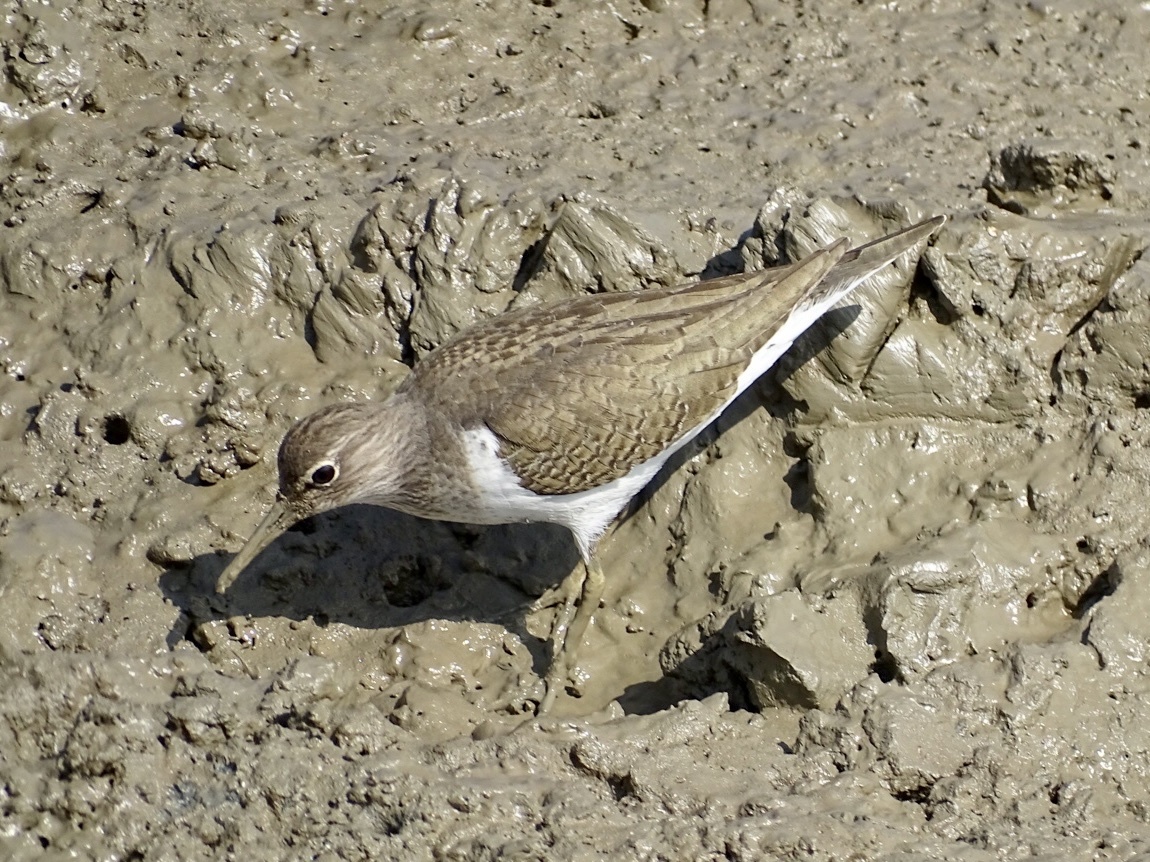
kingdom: Animalia
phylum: Chordata
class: Aves
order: Charadriiformes
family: Scolopacidae
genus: Actitis
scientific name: Actitis hypoleucos
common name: Common sandpiper
